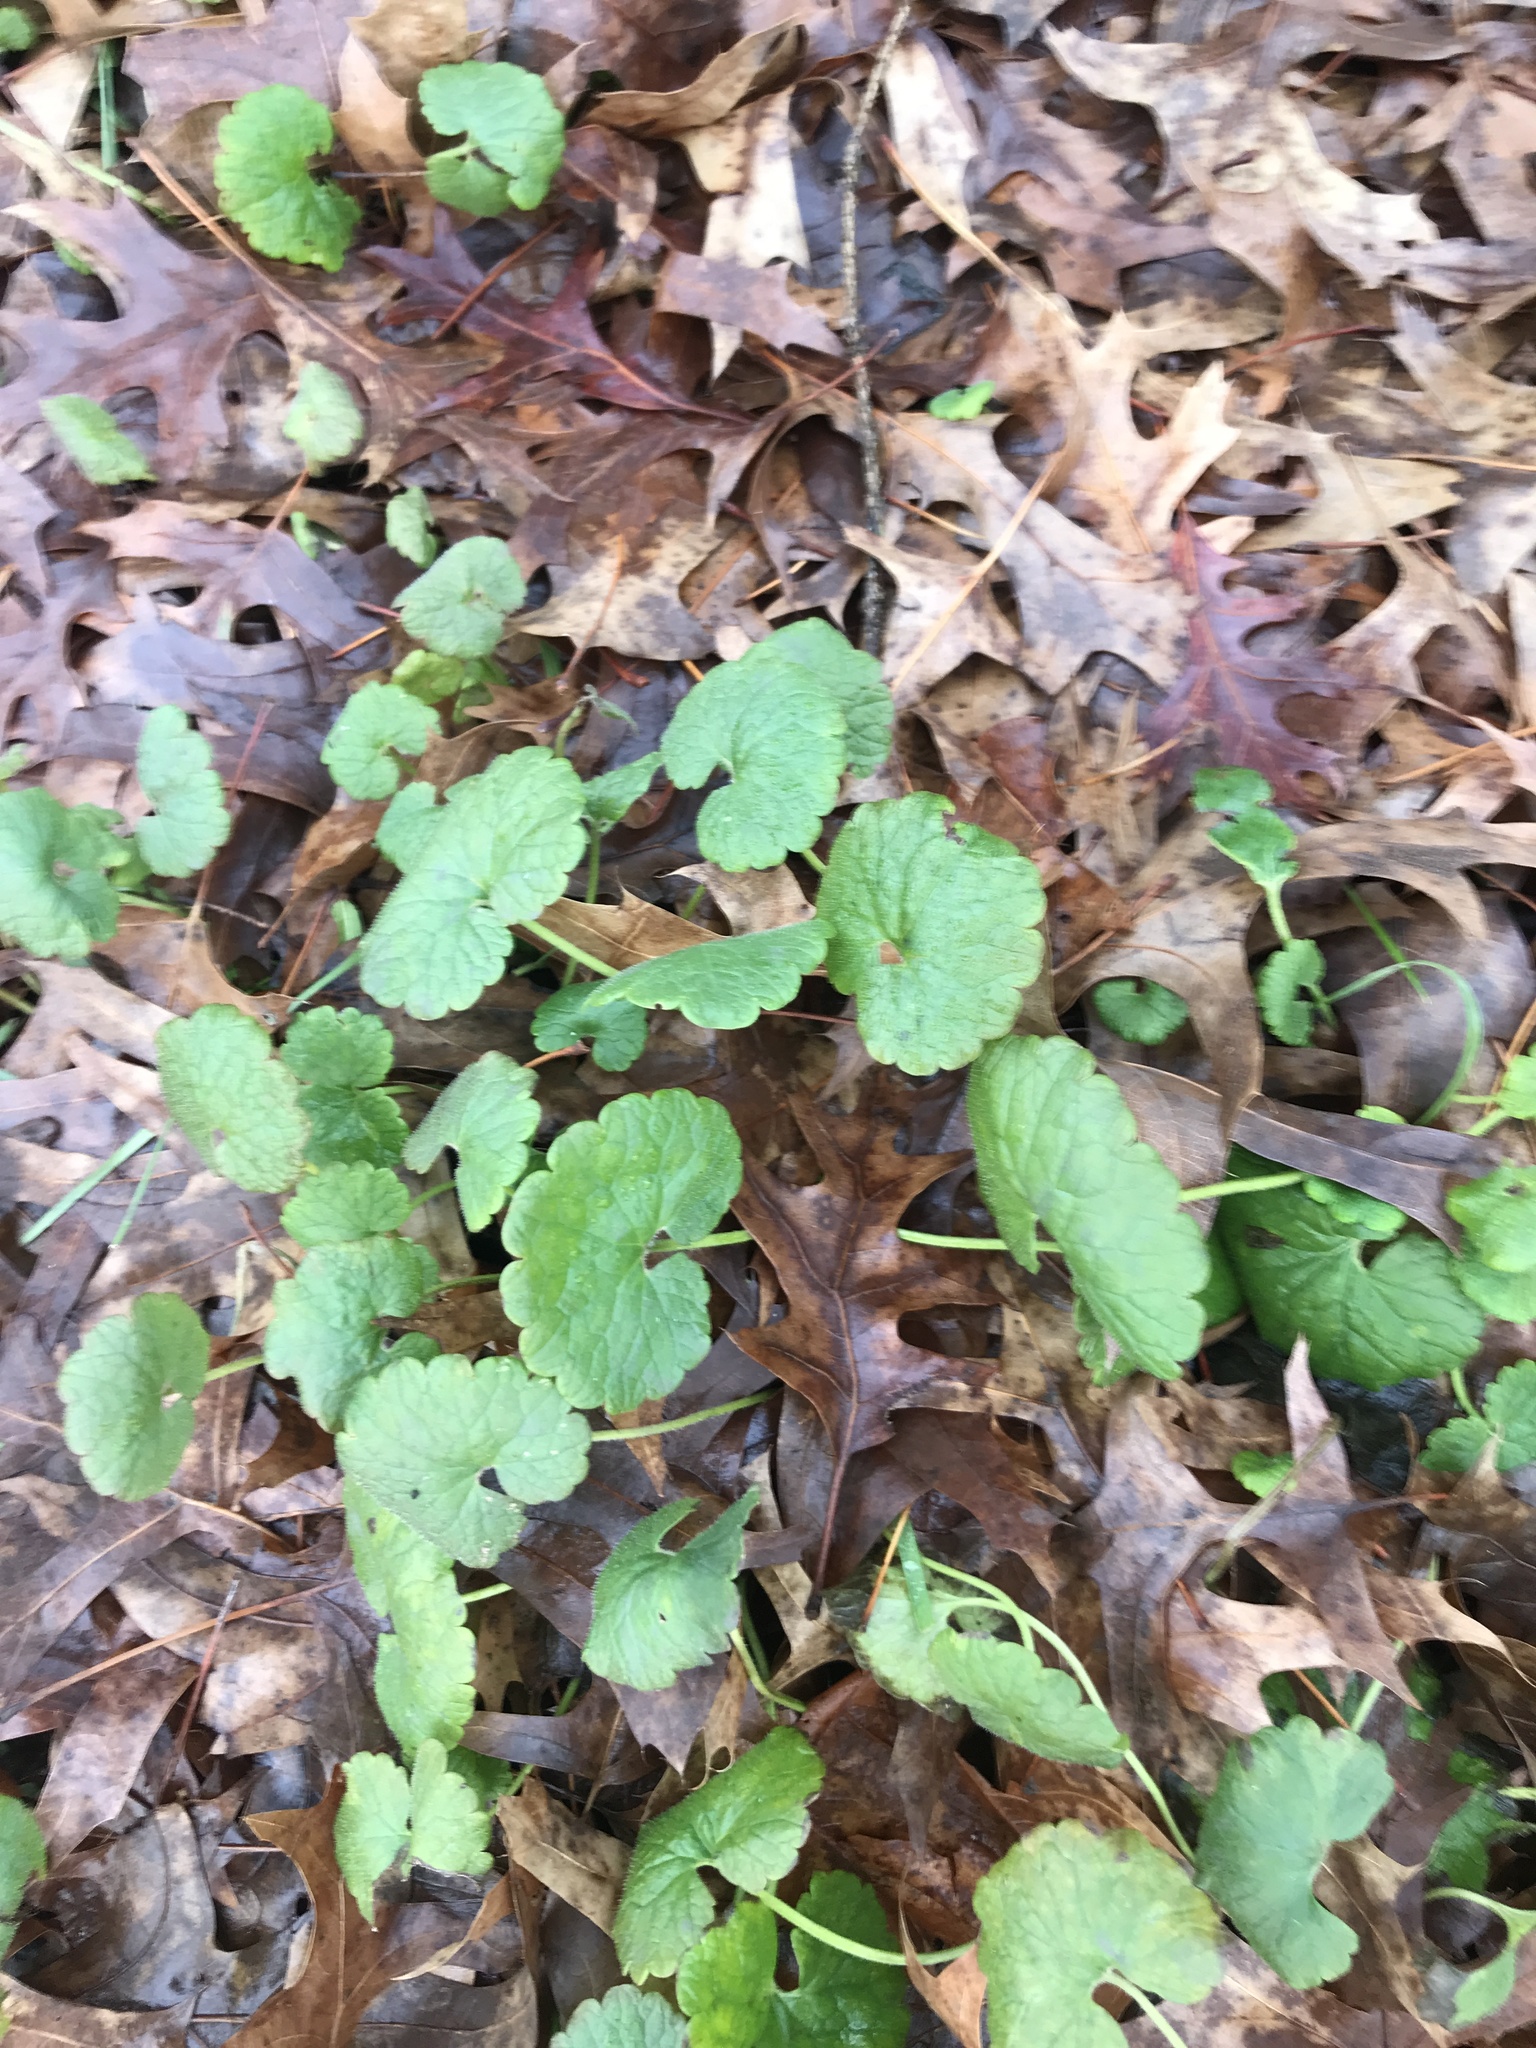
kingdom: Plantae
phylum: Tracheophyta
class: Magnoliopsida
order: Lamiales
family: Lamiaceae
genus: Glechoma
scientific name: Glechoma hederacea
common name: Ground ivy
